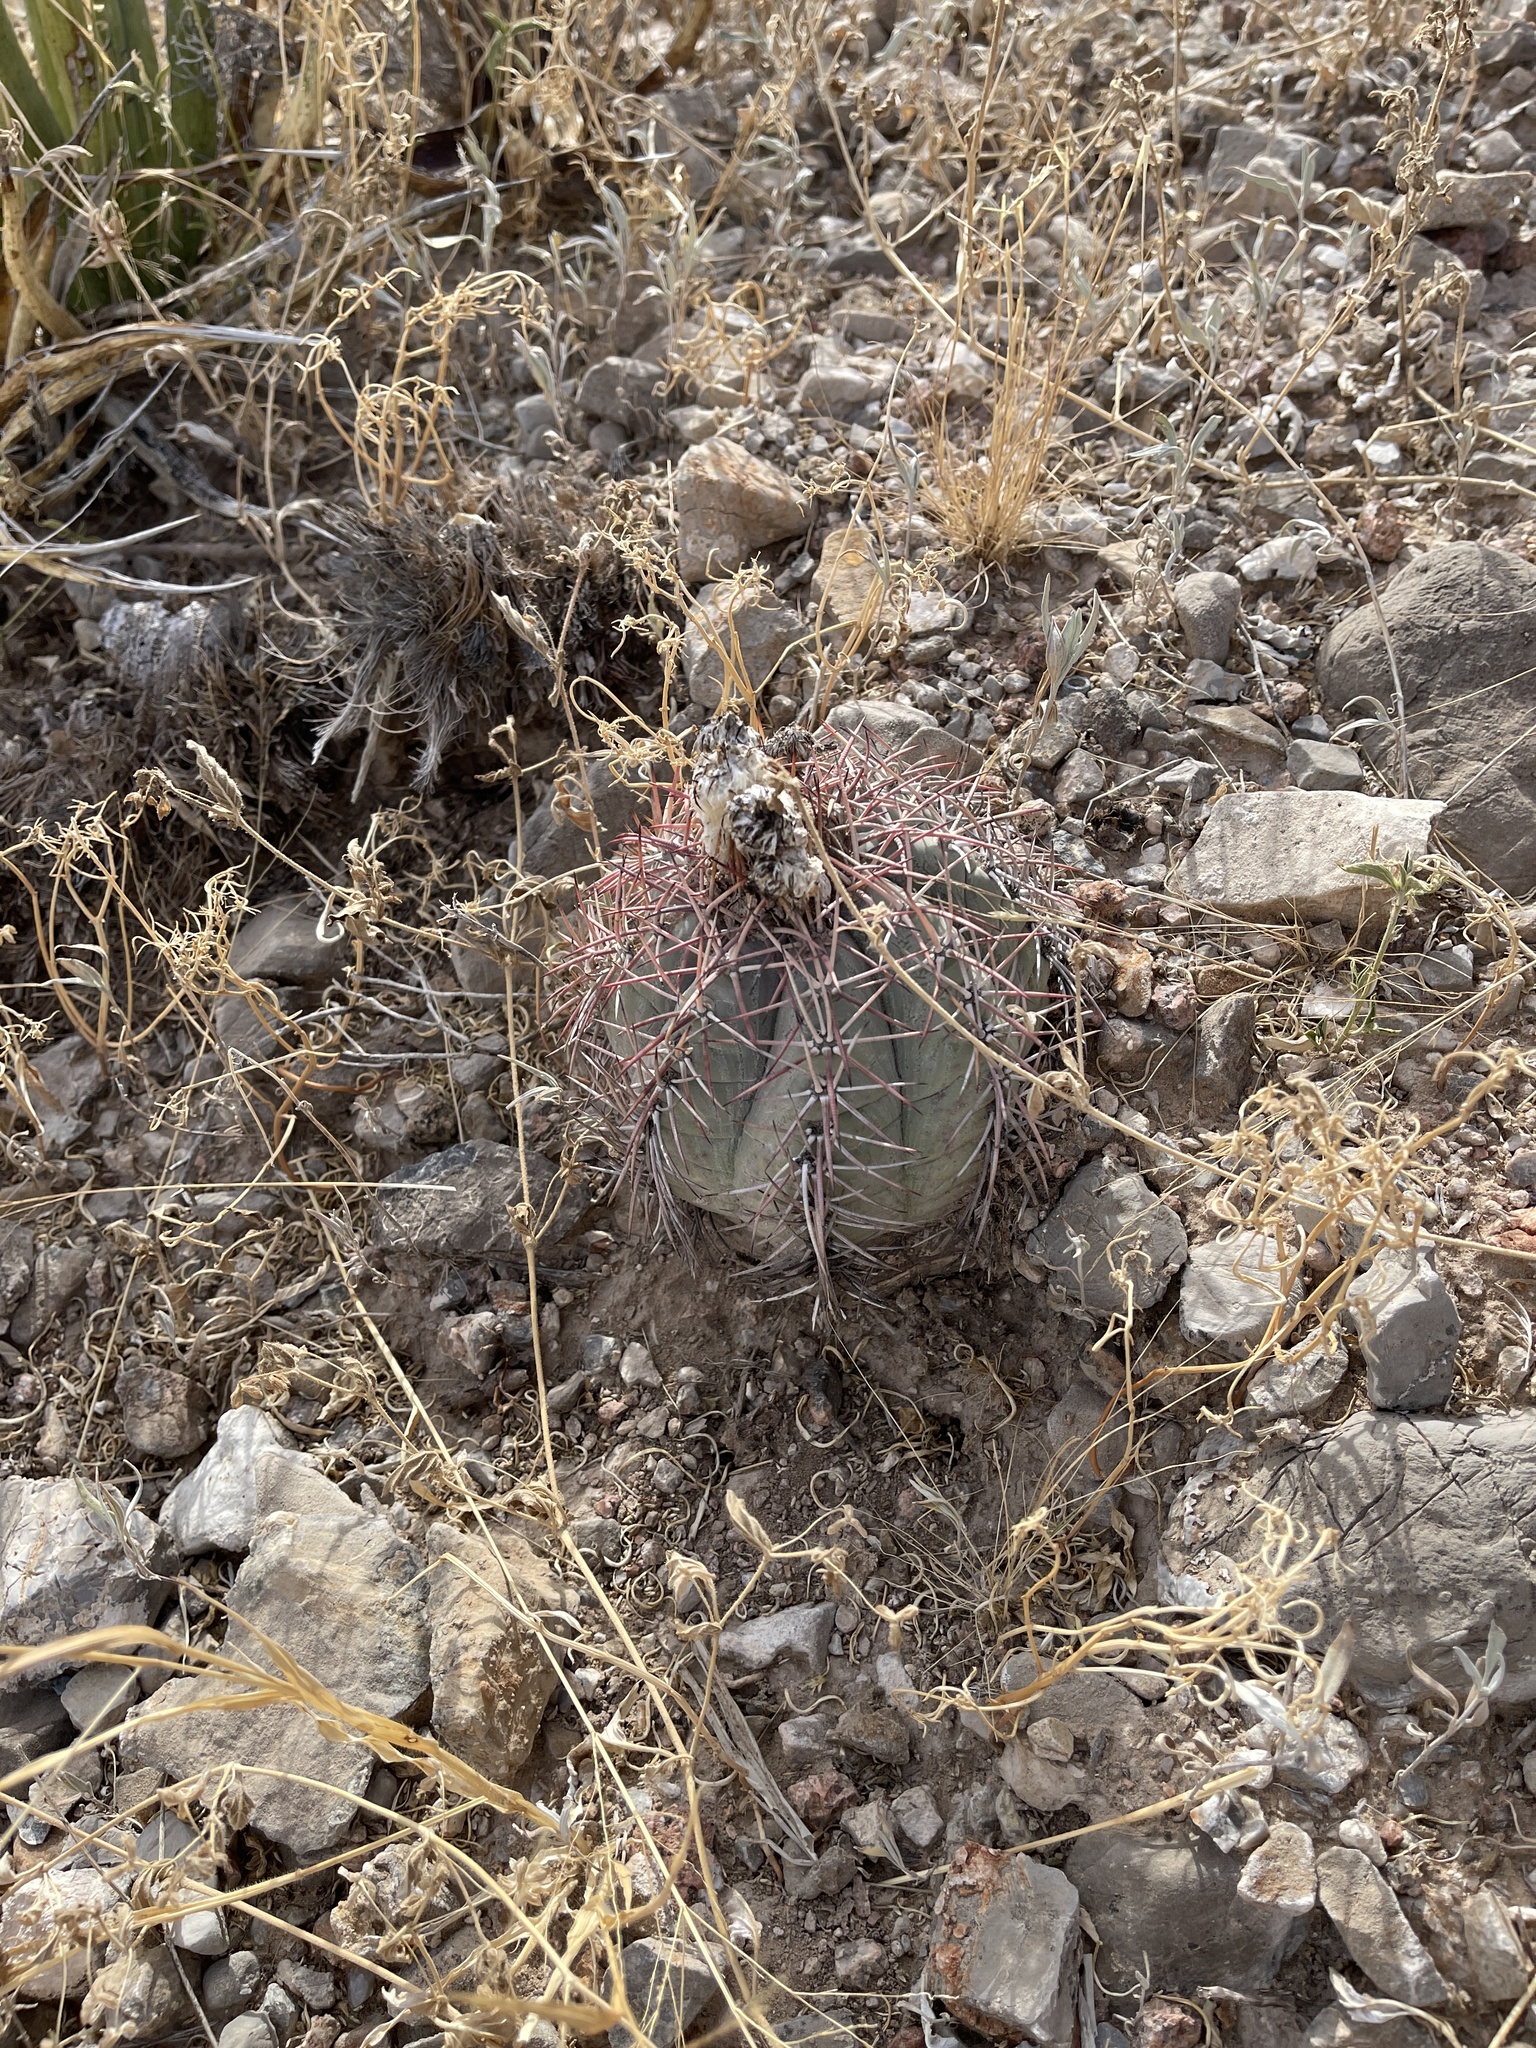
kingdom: Plantae
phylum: Tracheophyta
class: Magnoliopsida
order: Caryophyllales
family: Cactaceae
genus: Echinocactus
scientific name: Echinocactus horizonthalonius
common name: Devilshead
